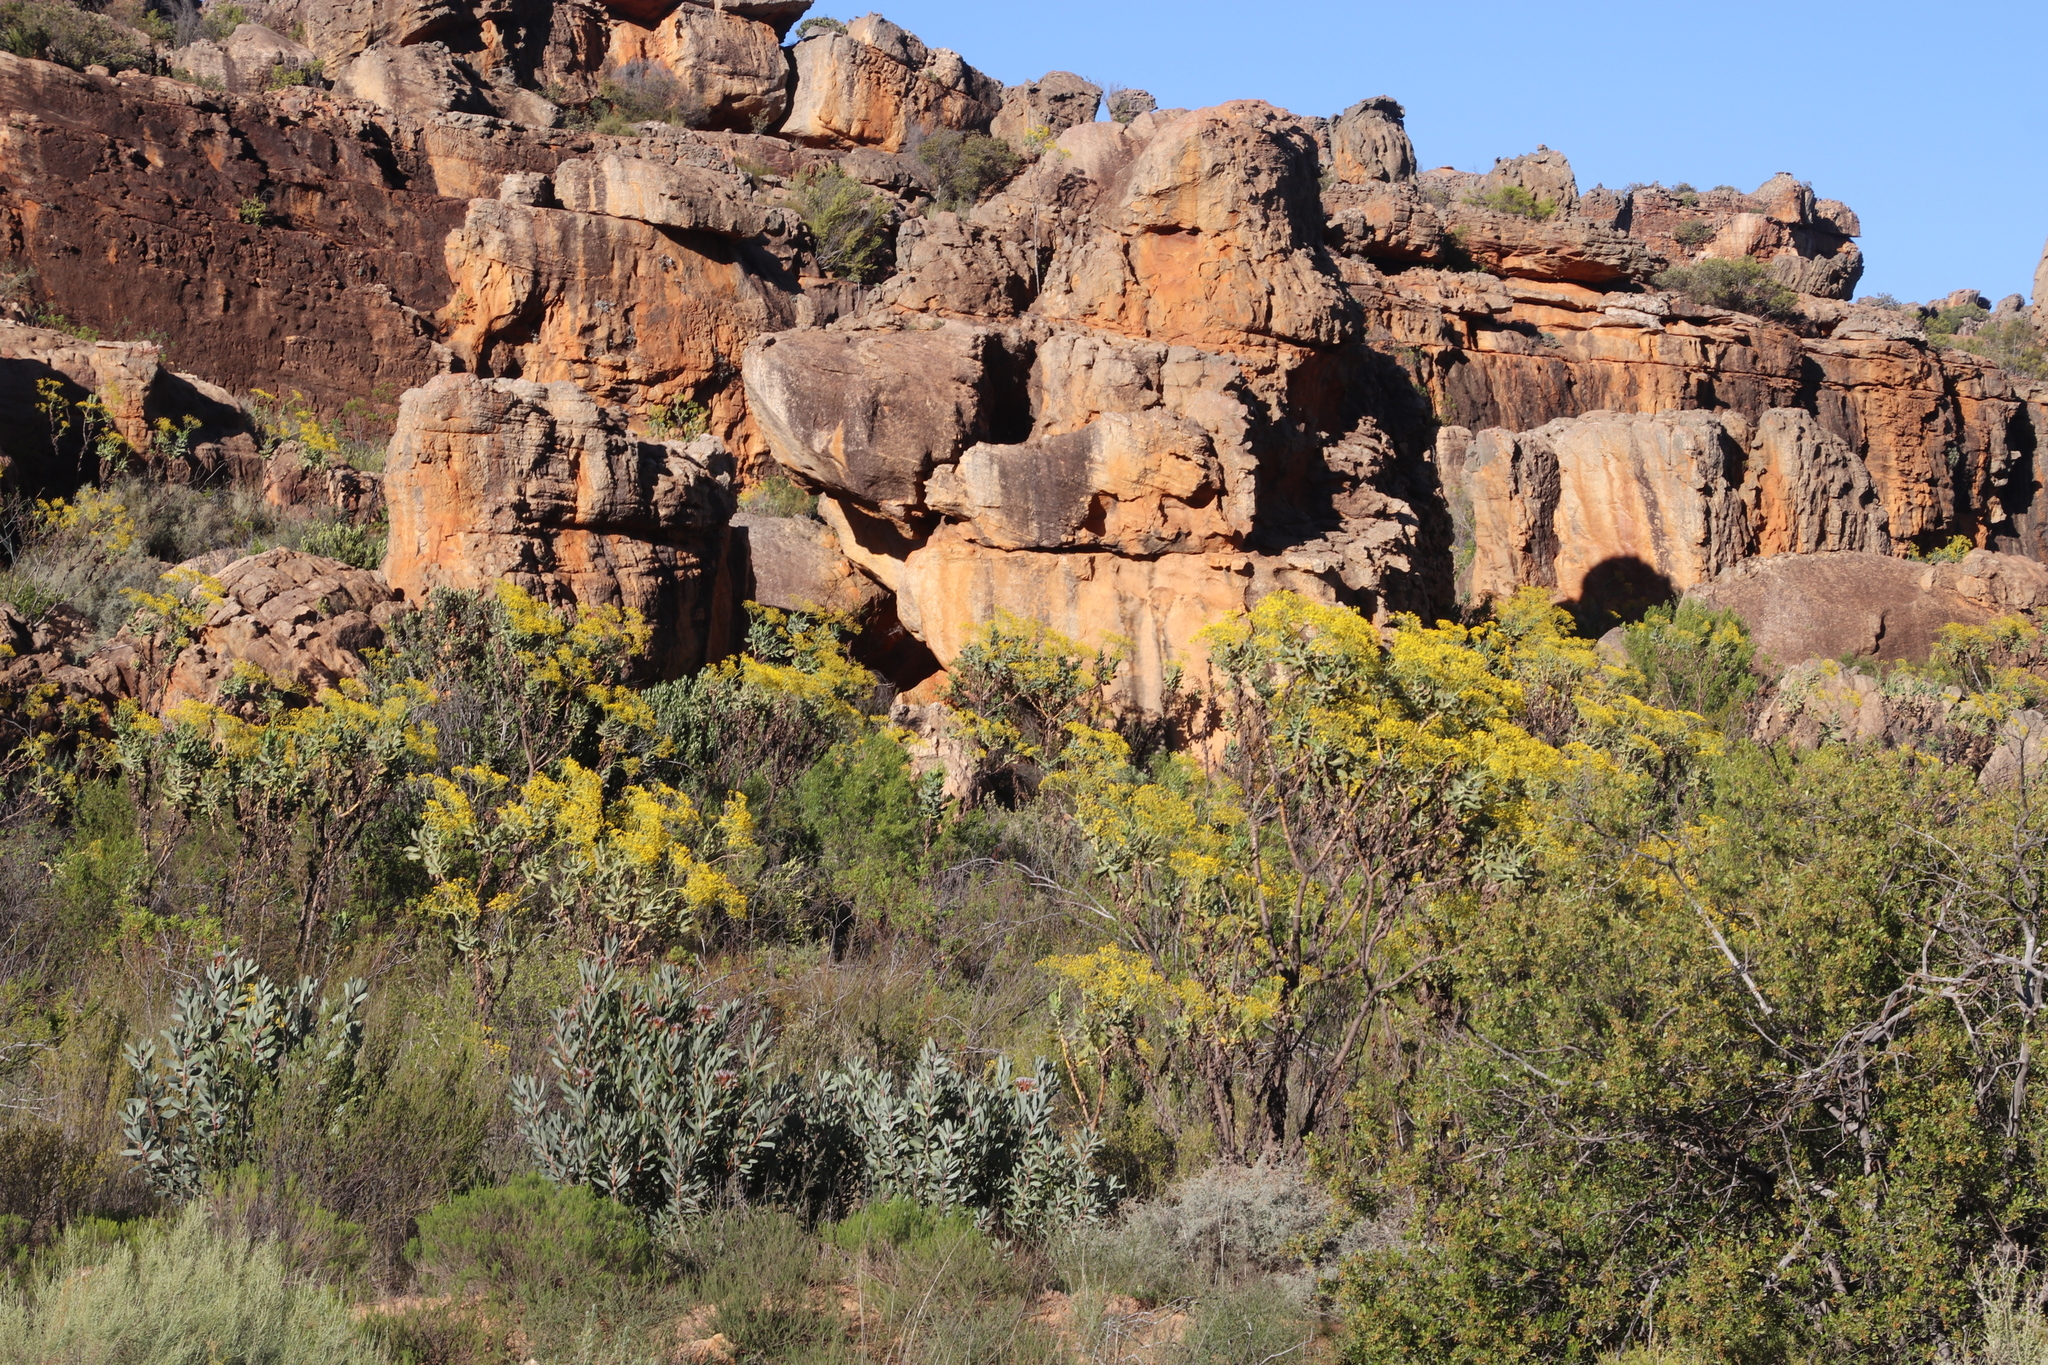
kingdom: Plantae
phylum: Tracheophyta
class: Magnoliopsida
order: Asterales
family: Asteraceae
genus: Othonna
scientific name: Othonna parviflora
